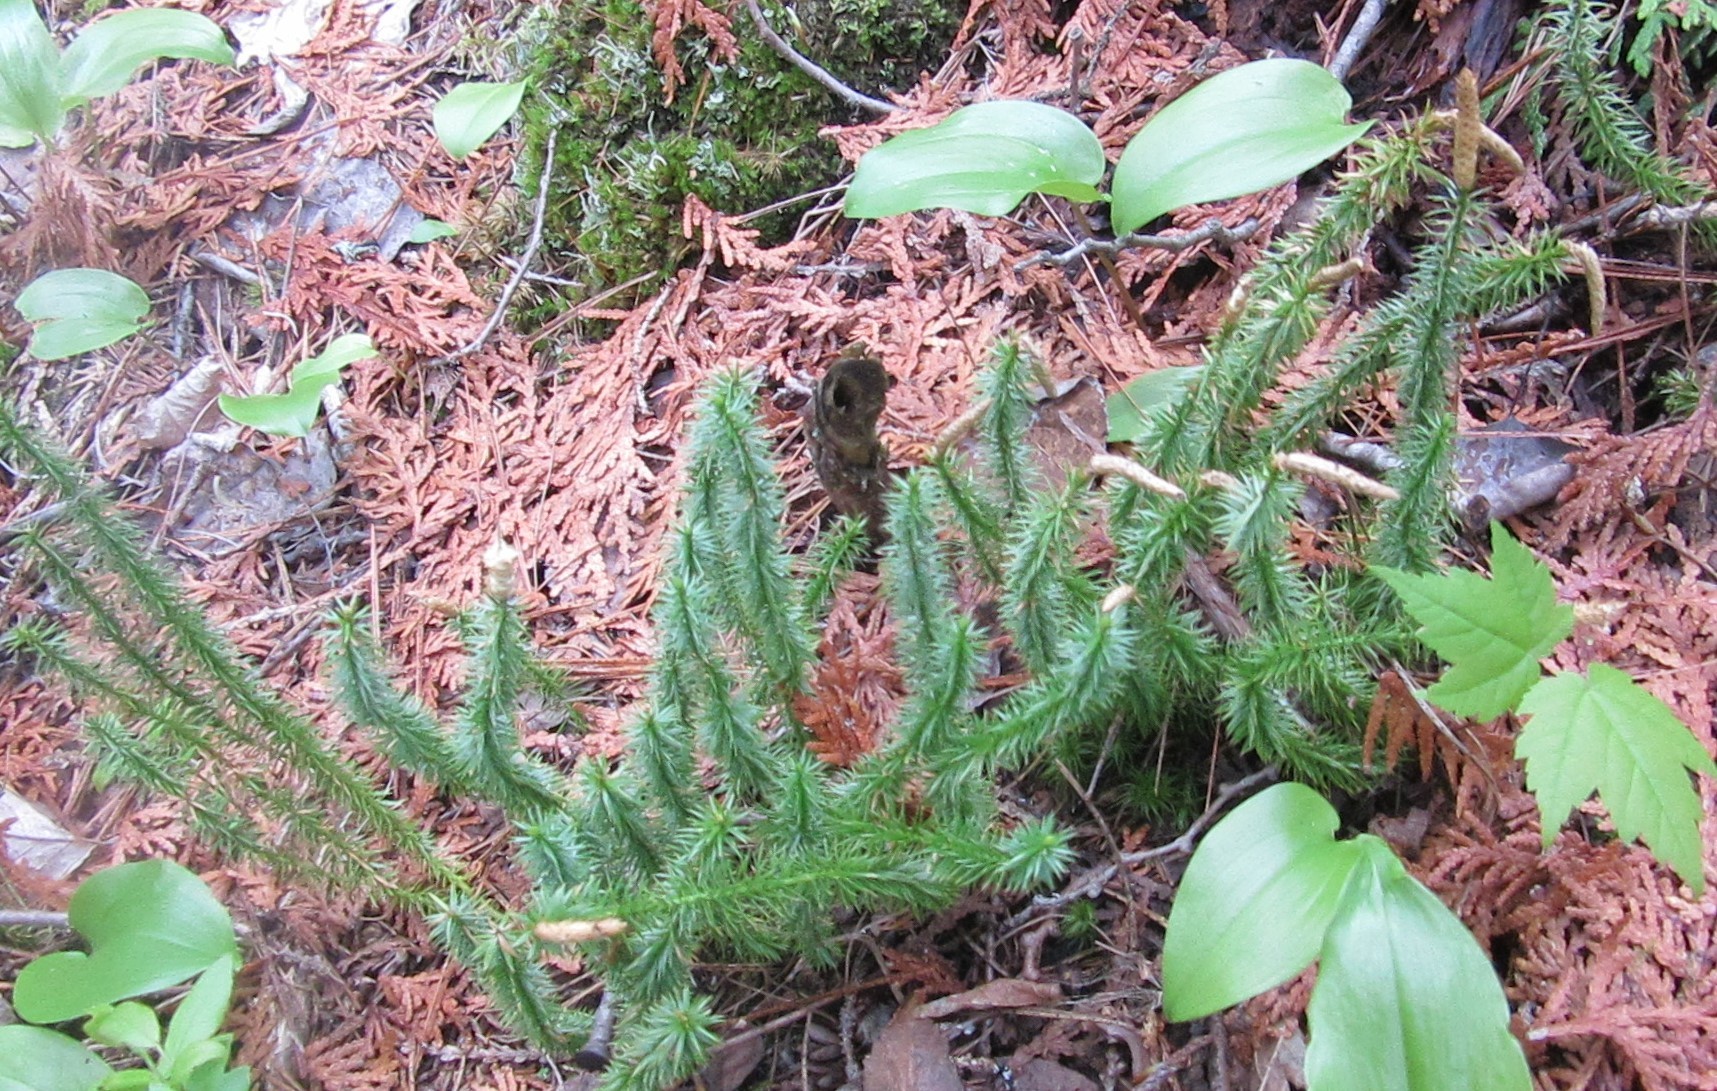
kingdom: Plantae
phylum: Tracheophyta
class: Lycopodiopsida
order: Lycopodiales
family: Lycopodiaceae
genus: Spinulum
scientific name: Spinulum annotinum
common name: Interrupted club-moss
